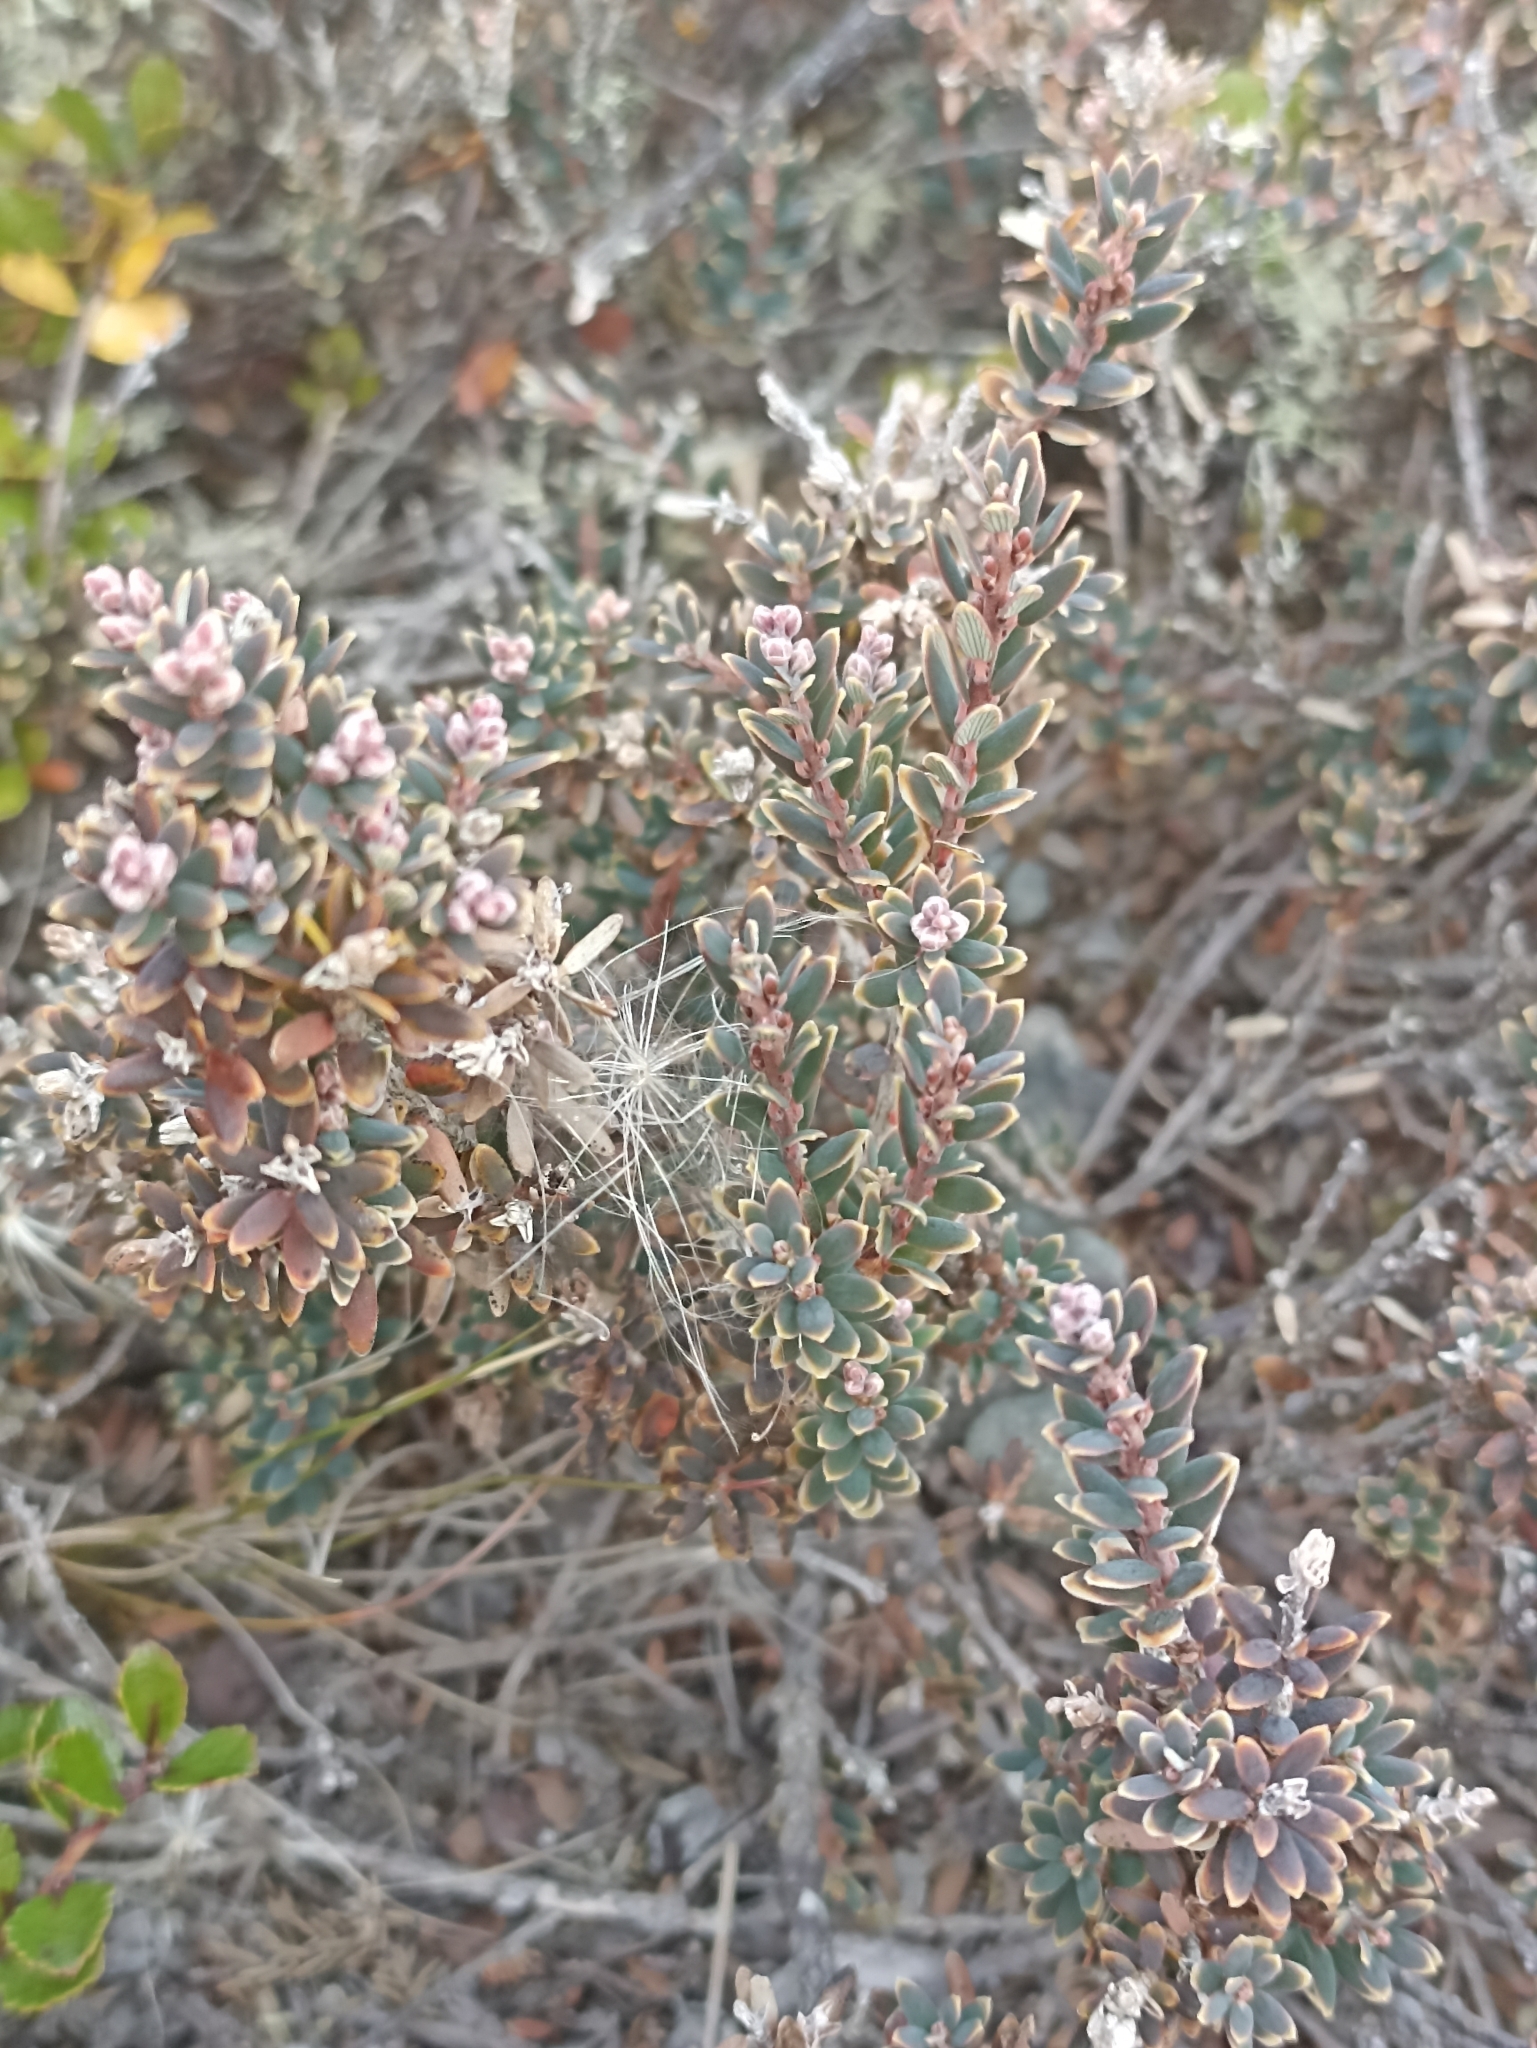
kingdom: Plantae
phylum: Tracheophyta
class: Magnoliopsida
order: Ericales
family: Ericaceae
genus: Acrothamnus
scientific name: Acrothamnus colensoi
